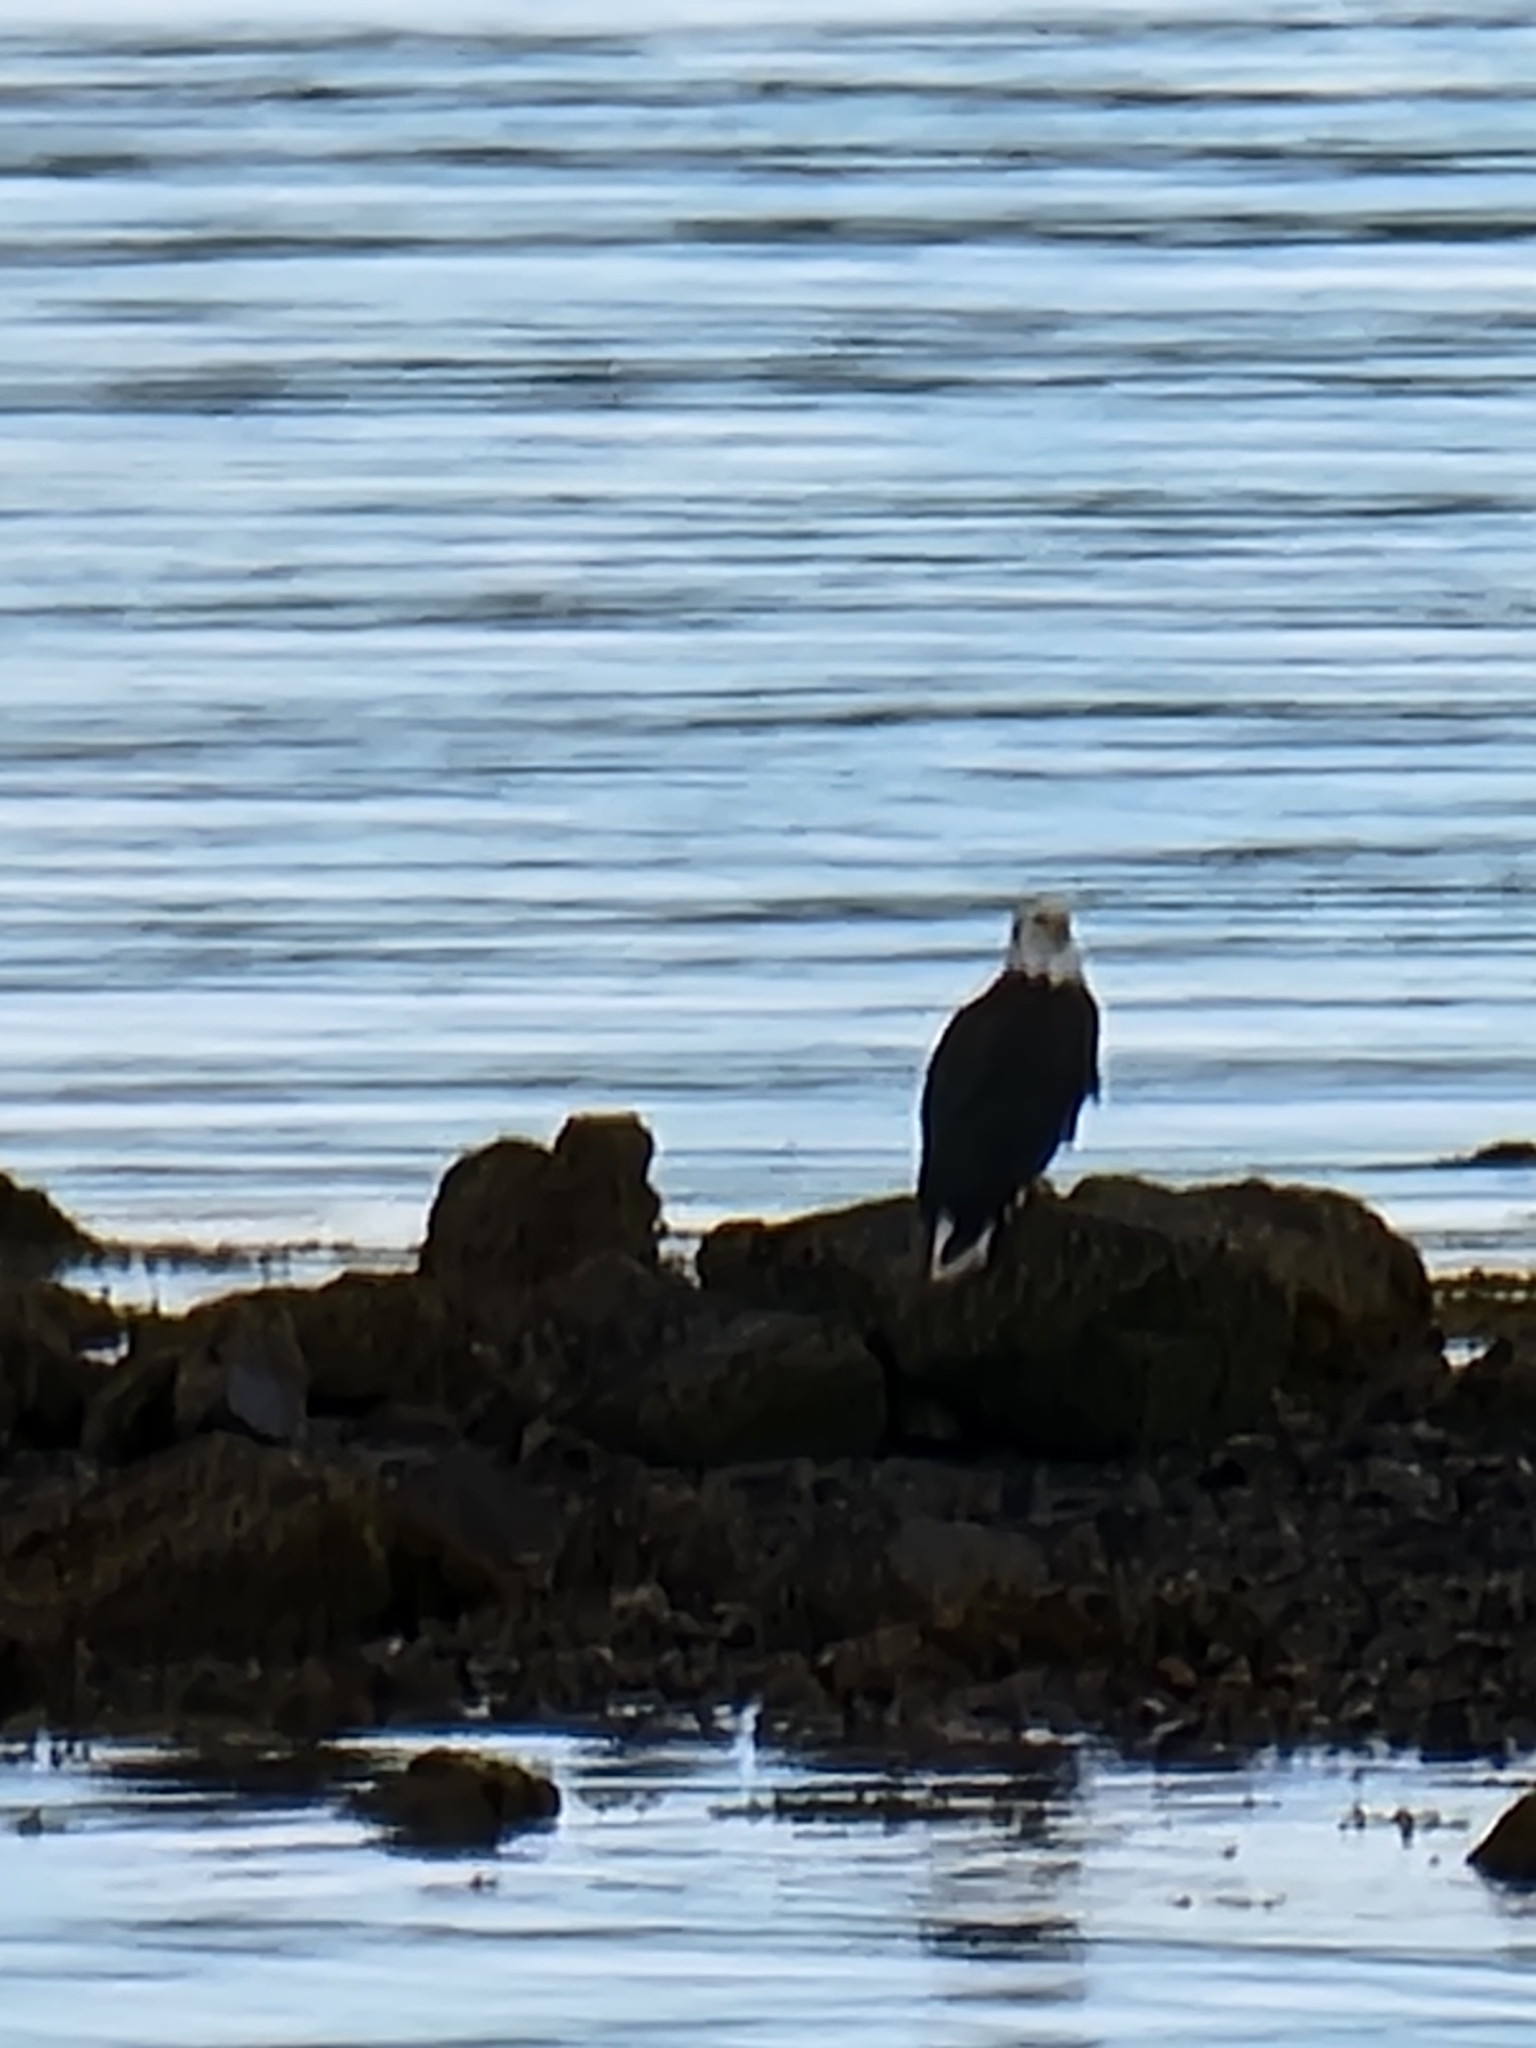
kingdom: Animalia
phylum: Chordata
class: Aves
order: Accipitriformes
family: Accipitridae
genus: Haliaeetus
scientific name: Haliaeetus leucocephalus
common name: Bald eagle
